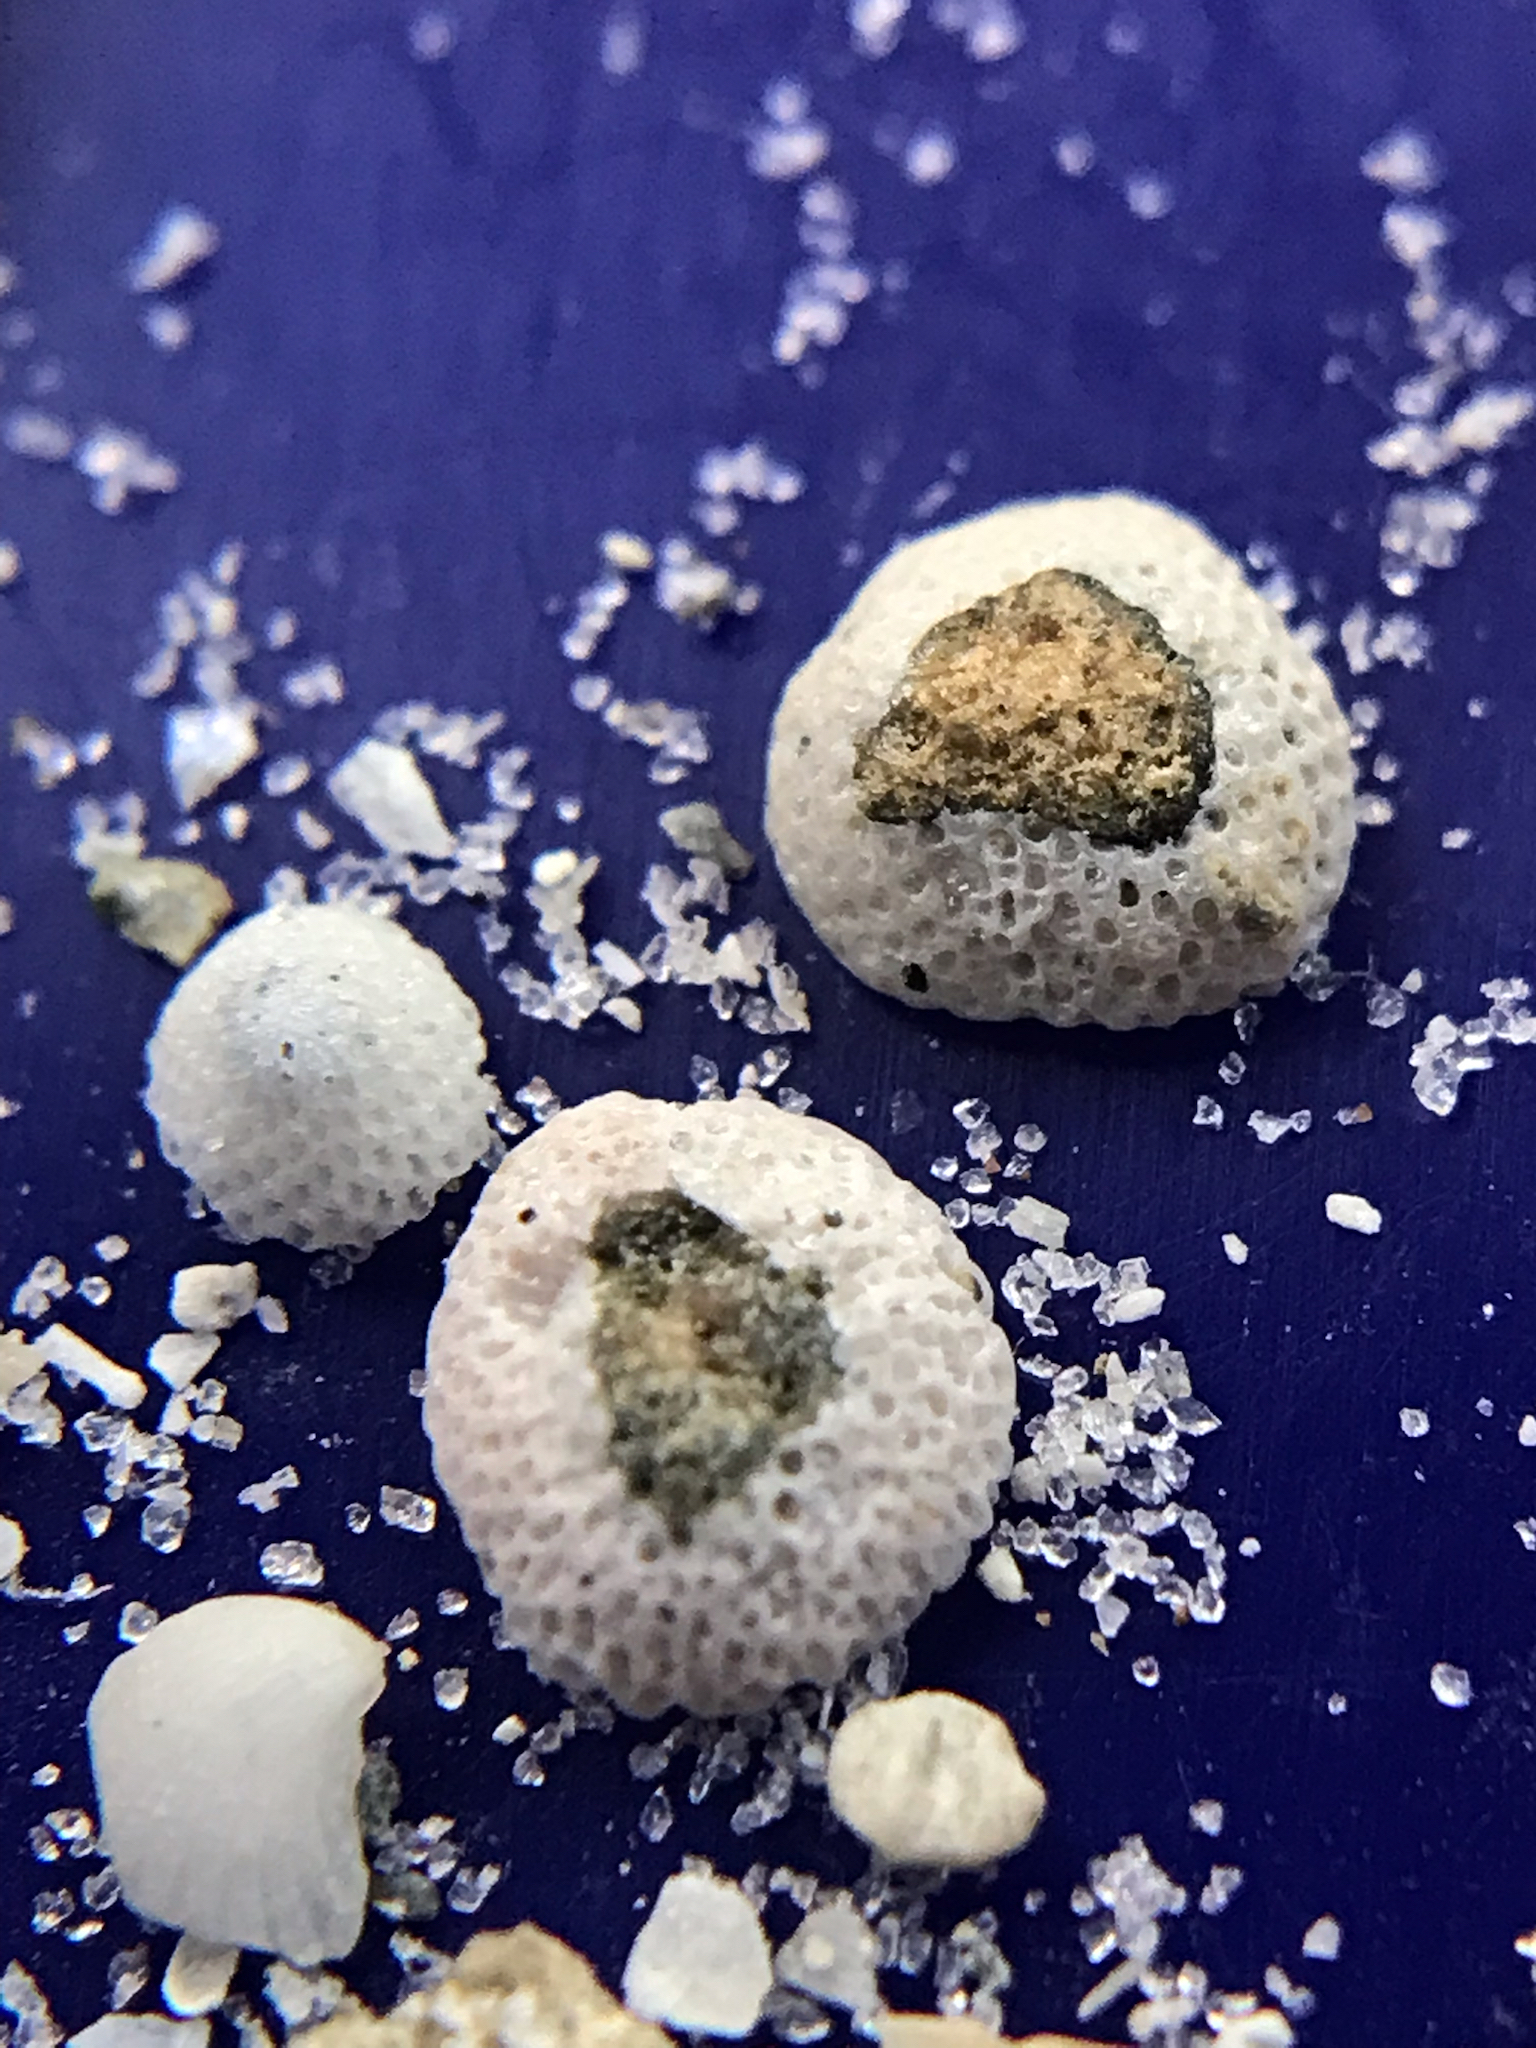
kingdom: Animalia
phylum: Bryozoa
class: Gymnolaemata
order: Cheilostomatida
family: Cupuladriidae
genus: Discoporella
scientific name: Discoporella umbellata
